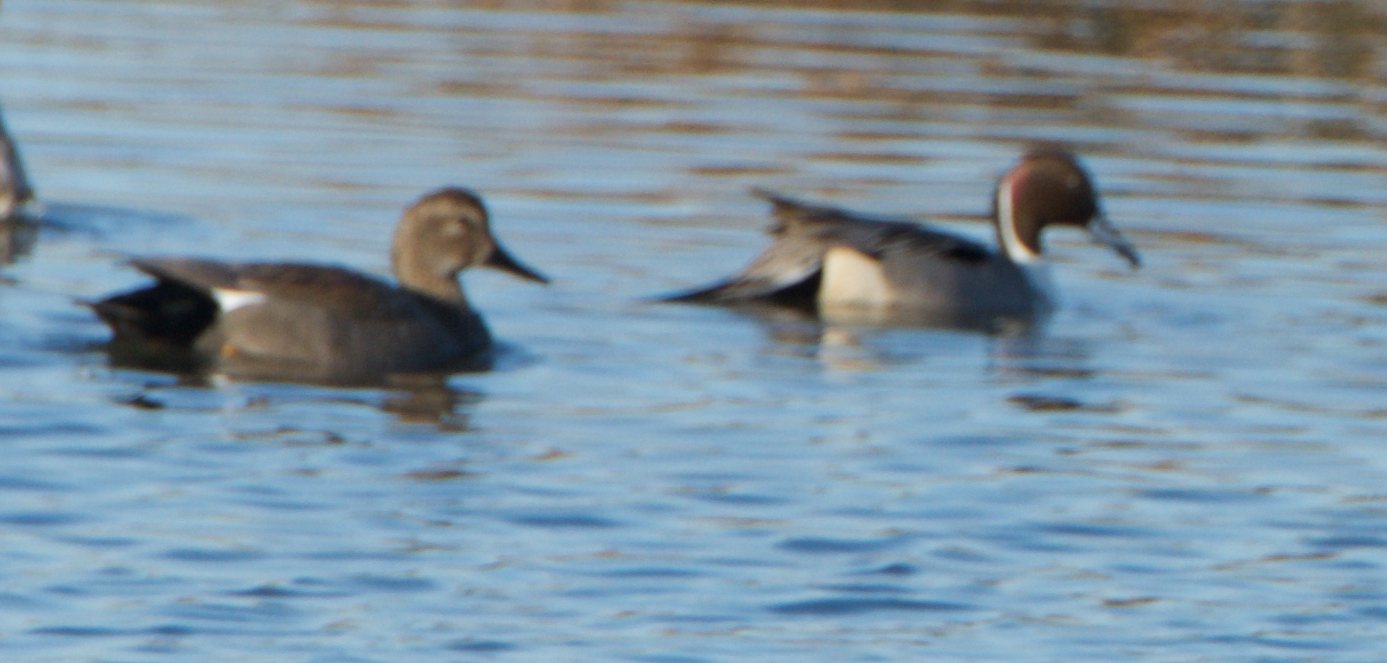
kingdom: Animalia
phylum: Chordata
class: Aves
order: Anseriformes
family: Anatidae
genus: Anas
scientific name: Anas acuta
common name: Northern pintail
